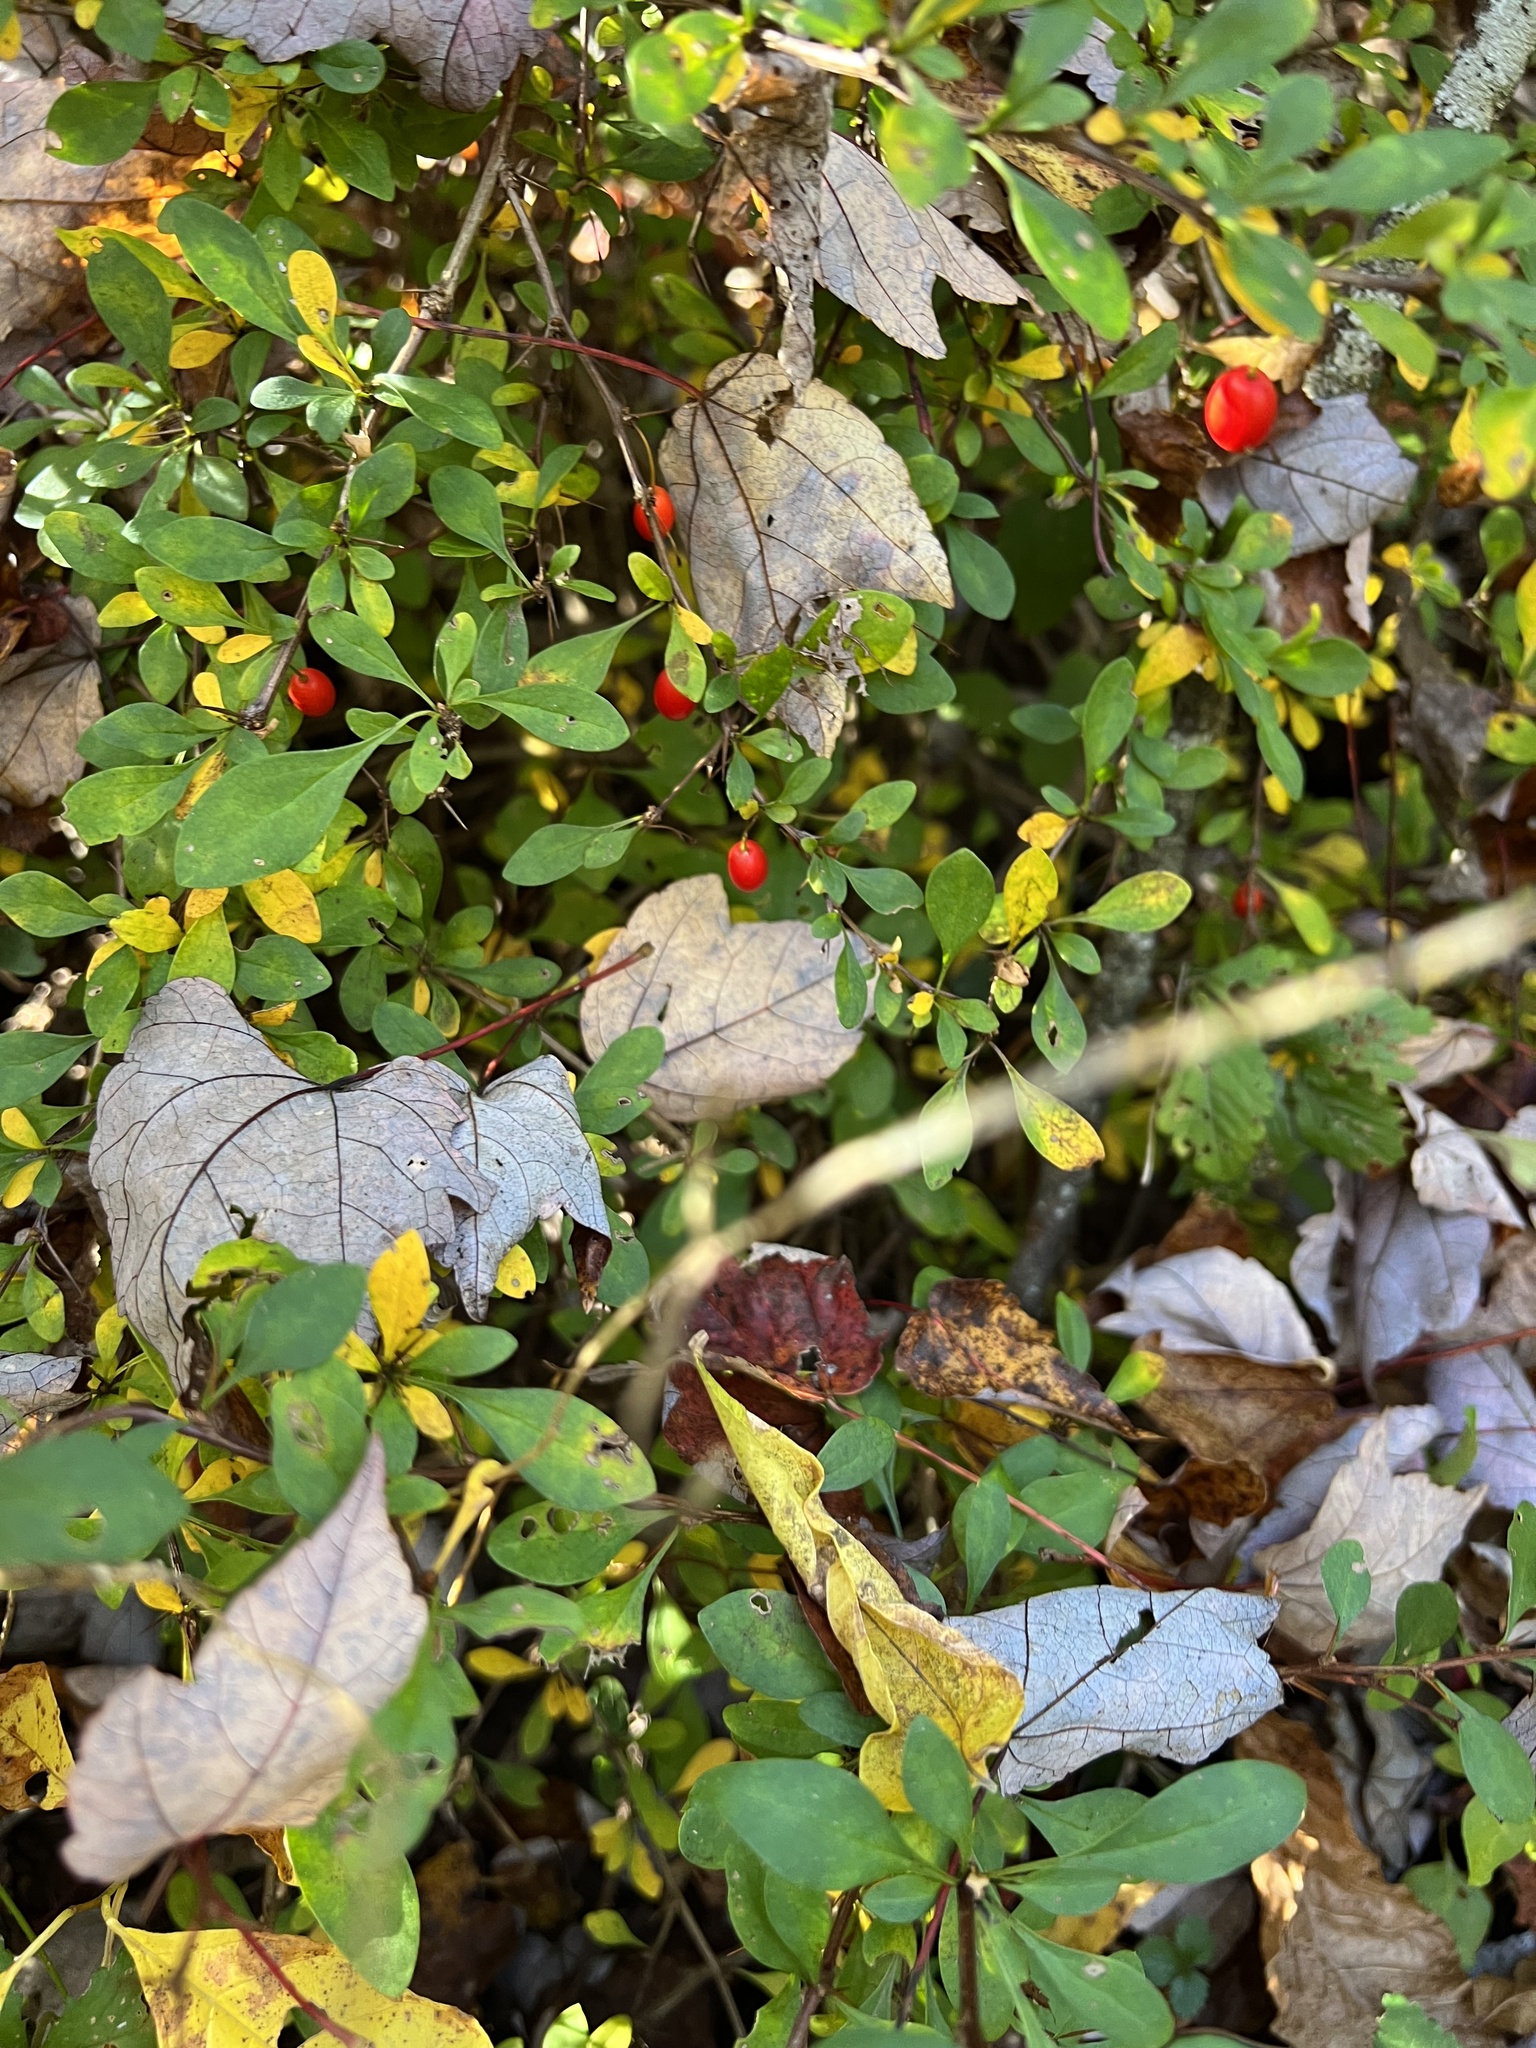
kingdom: Plantae
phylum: Tracheophyta
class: Magnoliopsida
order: Ranunculales
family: Berberidaceae
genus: Berberis
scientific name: Berberis thunbergii
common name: Japanese barberry
